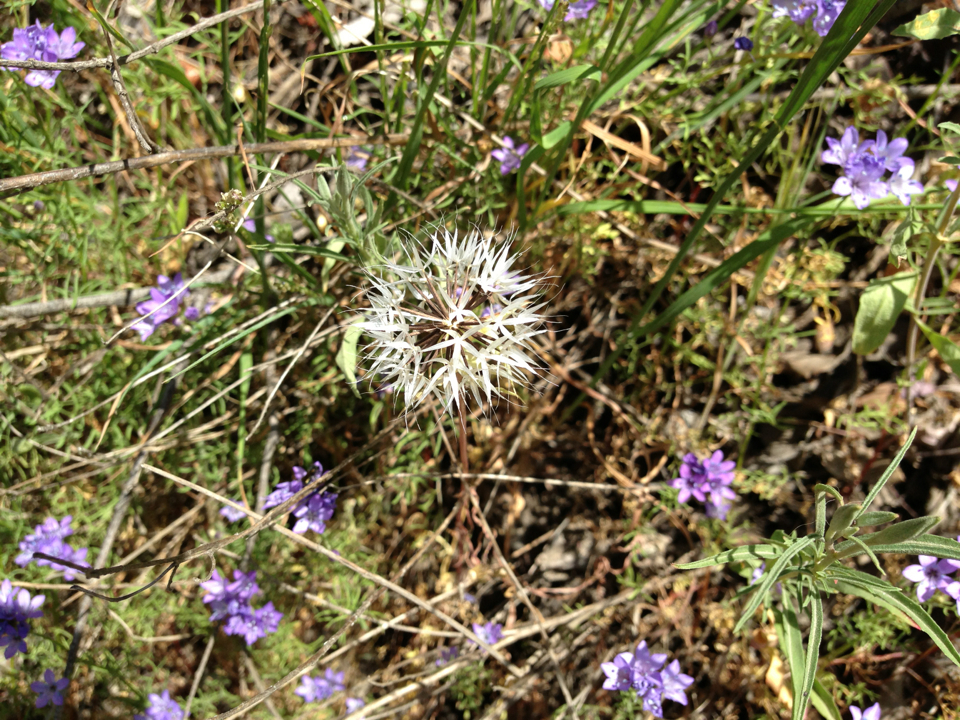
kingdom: Plantae
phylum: Tracheophyta
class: Magnoliopsida
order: Asterales
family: Asteraceae
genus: Microseris
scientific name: Microseris lindleyi
